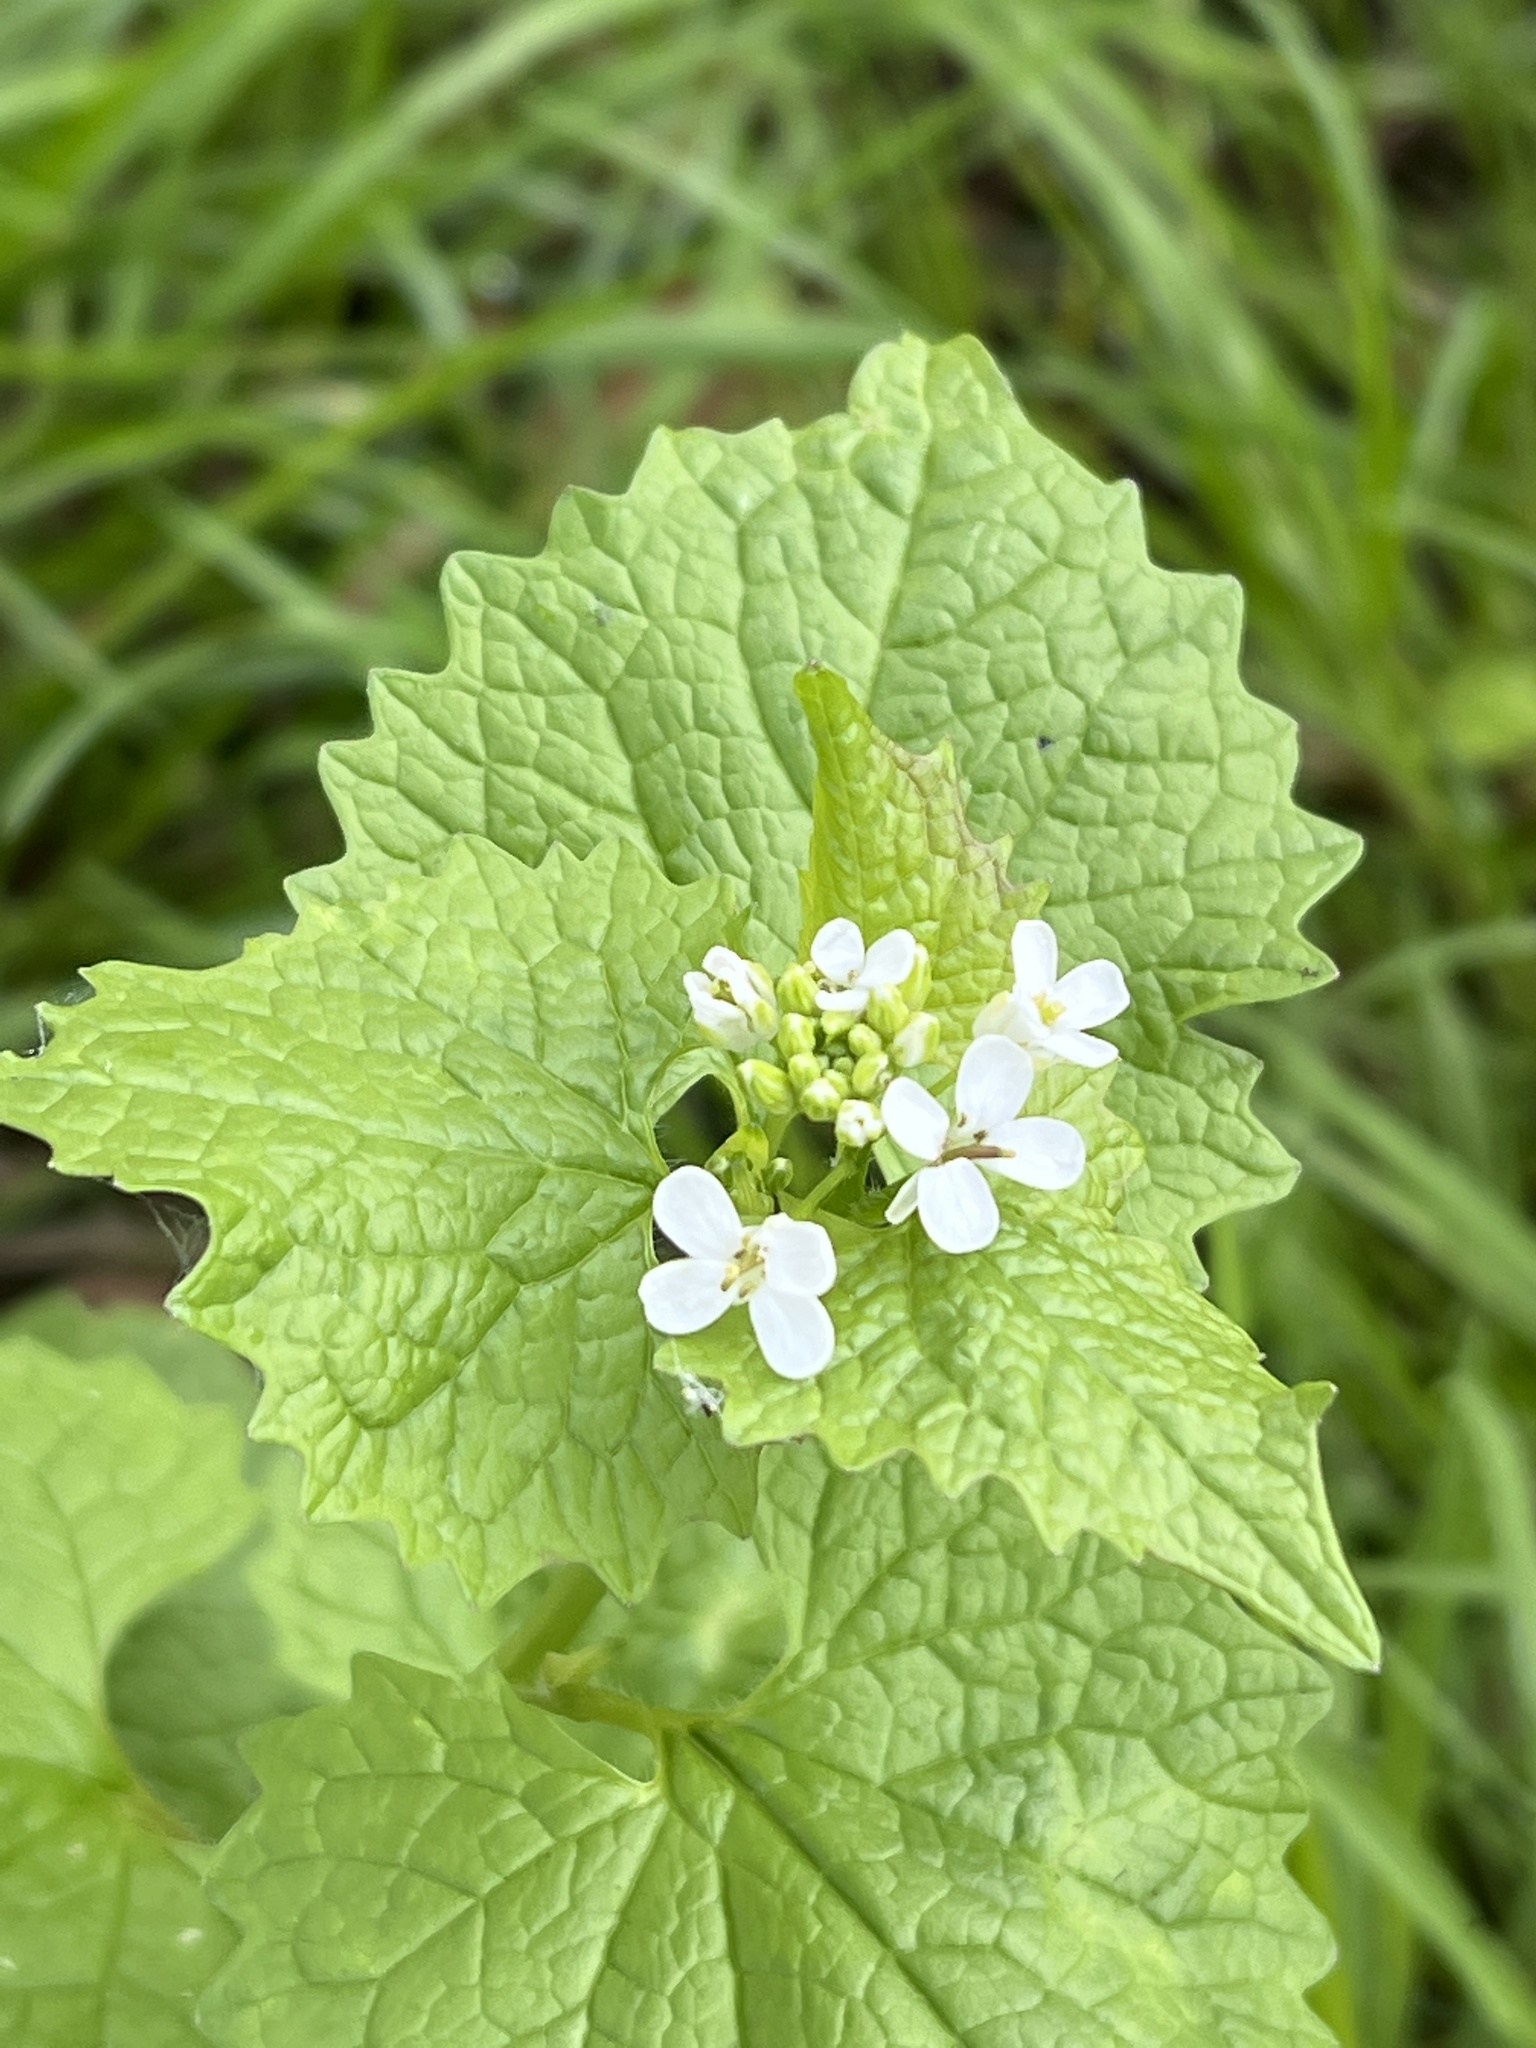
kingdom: Plantae
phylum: Tracheophyta
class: Magnoliopsida
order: Brassicales
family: Brassicaceae
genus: Alliaria
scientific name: Alliaria petiolata
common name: Garlic mustard
